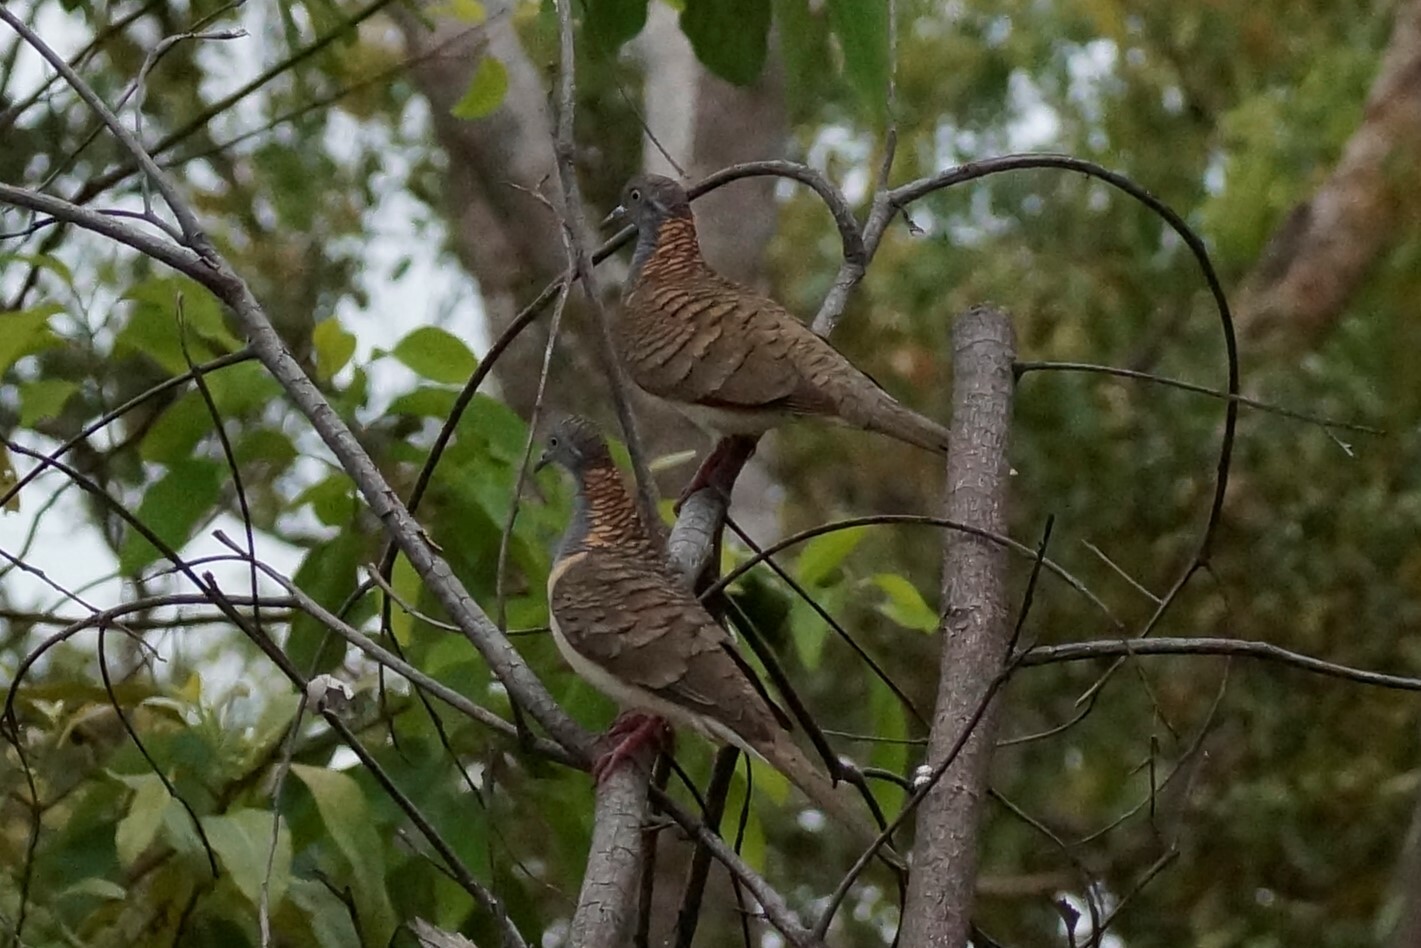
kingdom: Animalia
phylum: Chordata
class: Aves
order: Columbiformes
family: Columbidae
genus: Geopelia
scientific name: Geopelia humeralis
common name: Bar-shouldered dove
